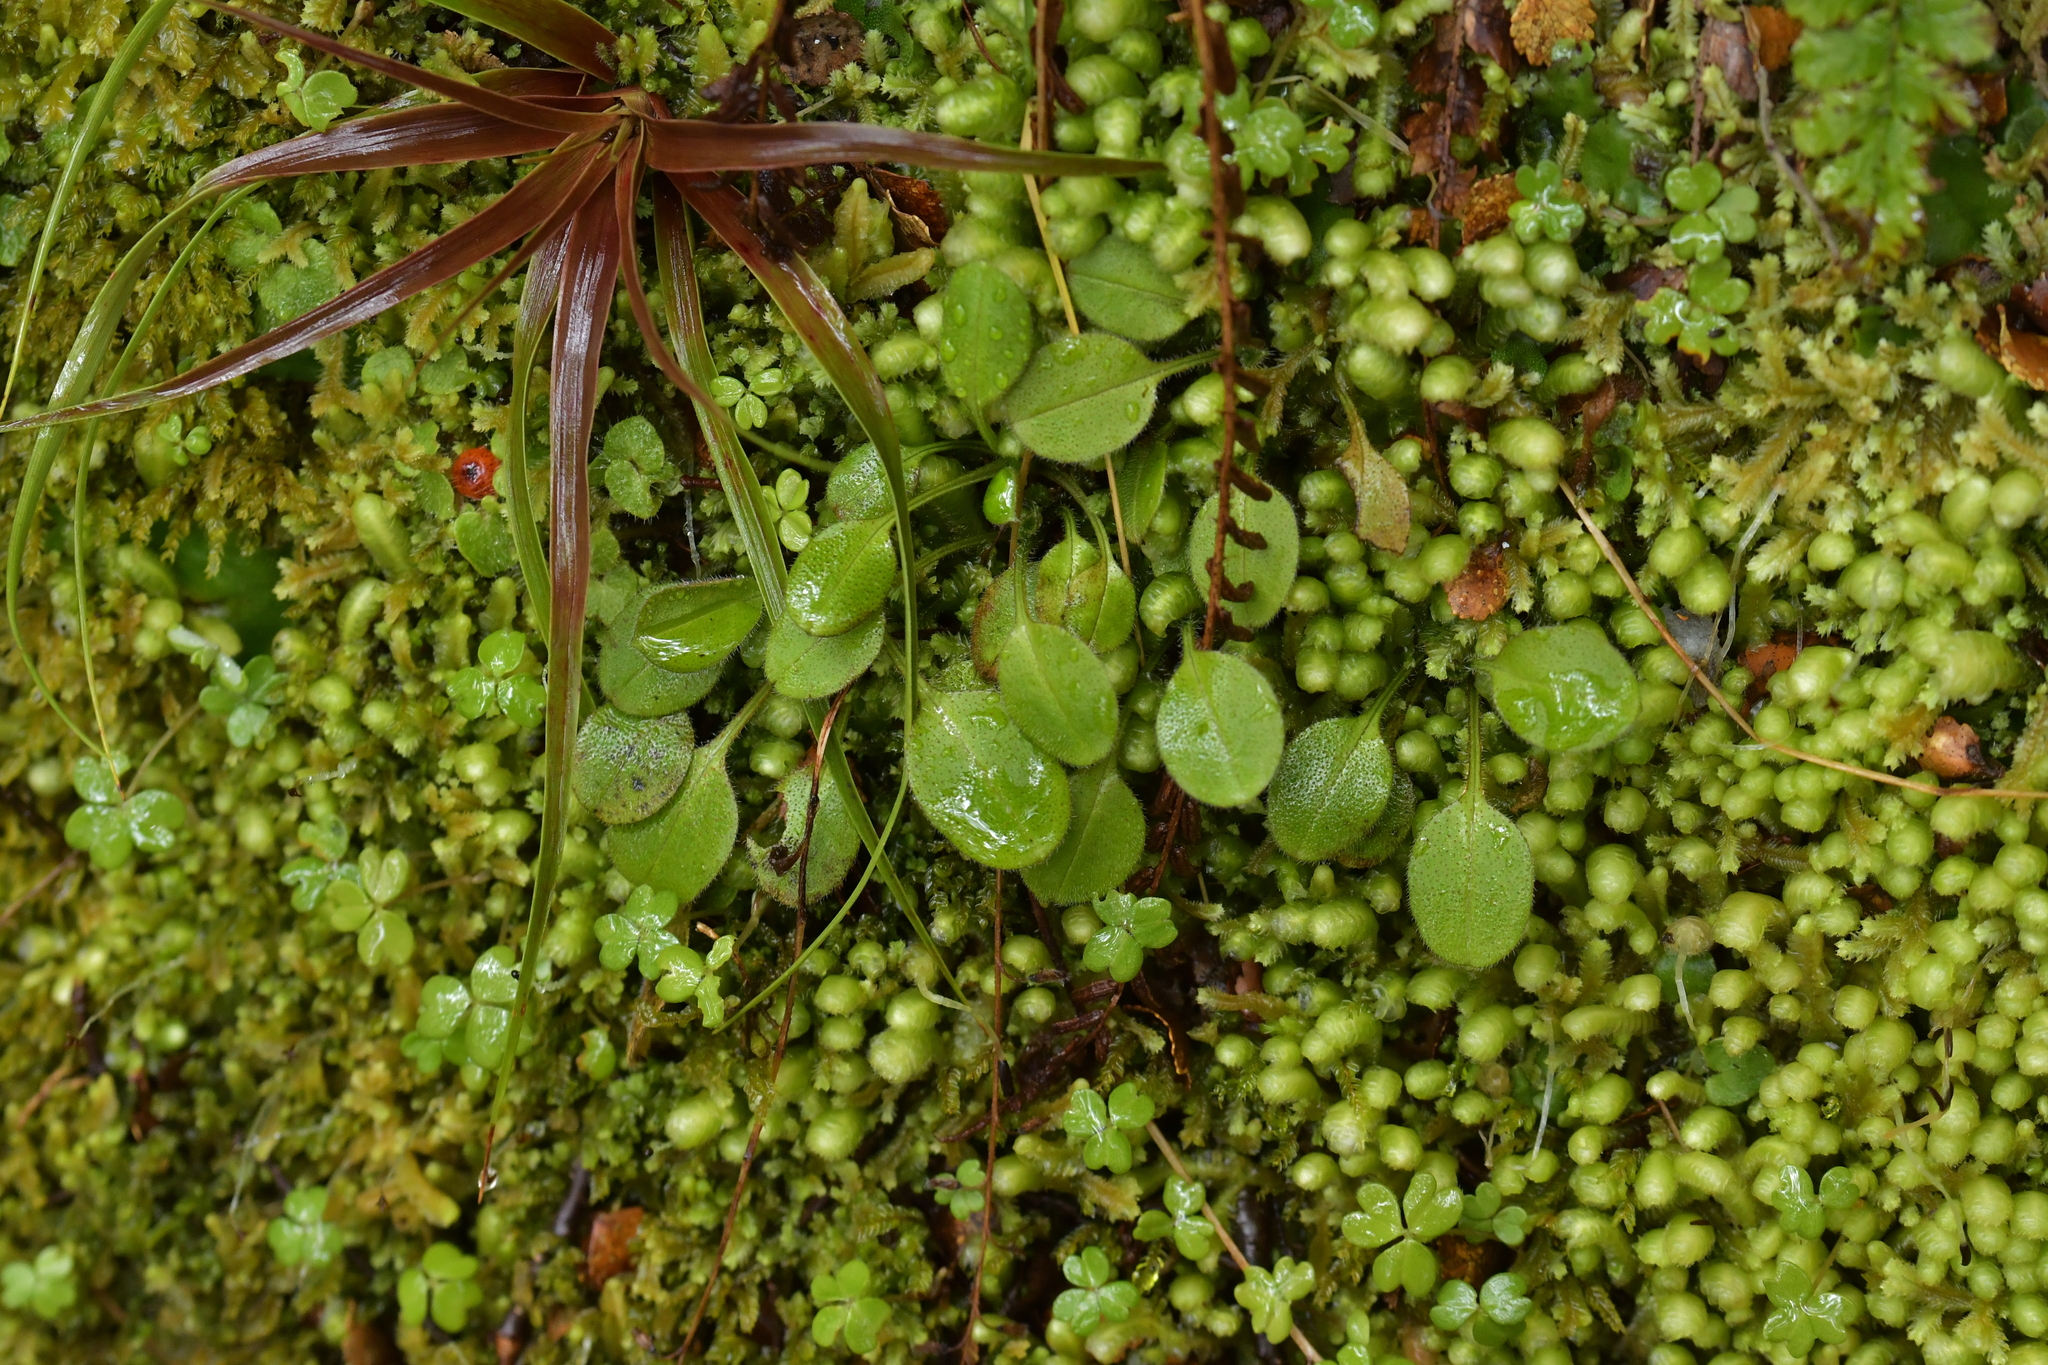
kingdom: Plantae
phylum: Tracheophyta
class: Magnoliopsida
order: Boraginales
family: Boraginaceae
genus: Myosotis
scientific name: Myosotis forsteri
